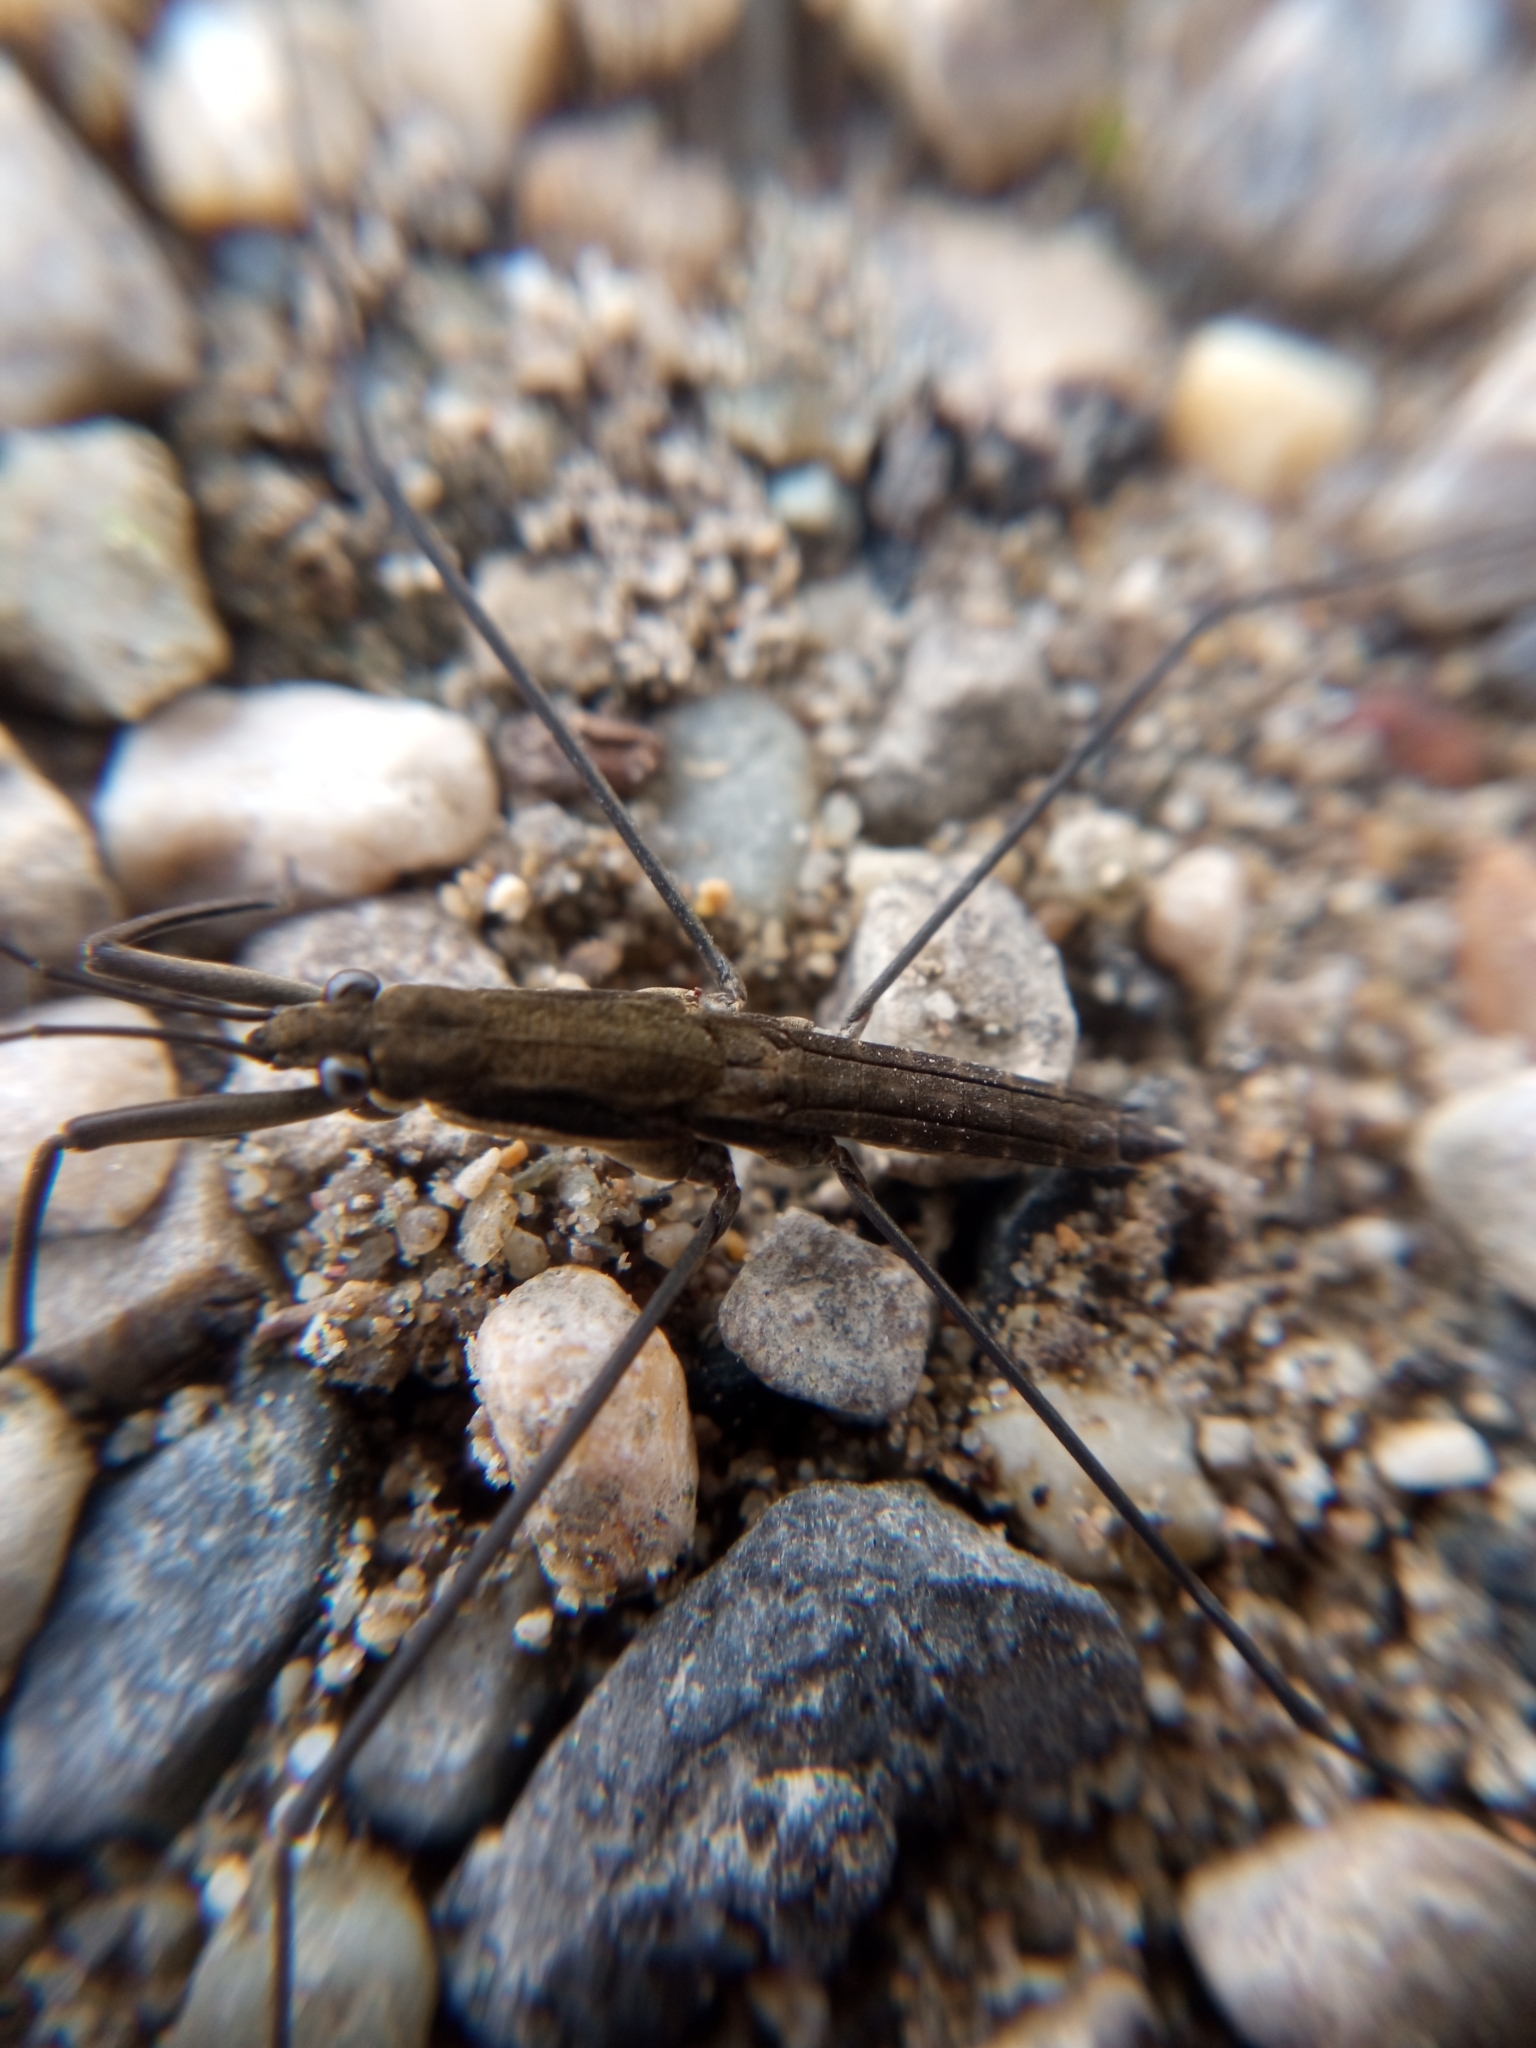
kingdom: Animalia
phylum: Arthropoda
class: Insecta
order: Hemiptera
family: Gerridae
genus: Aquarius
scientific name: Aquarius najas
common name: River skater
